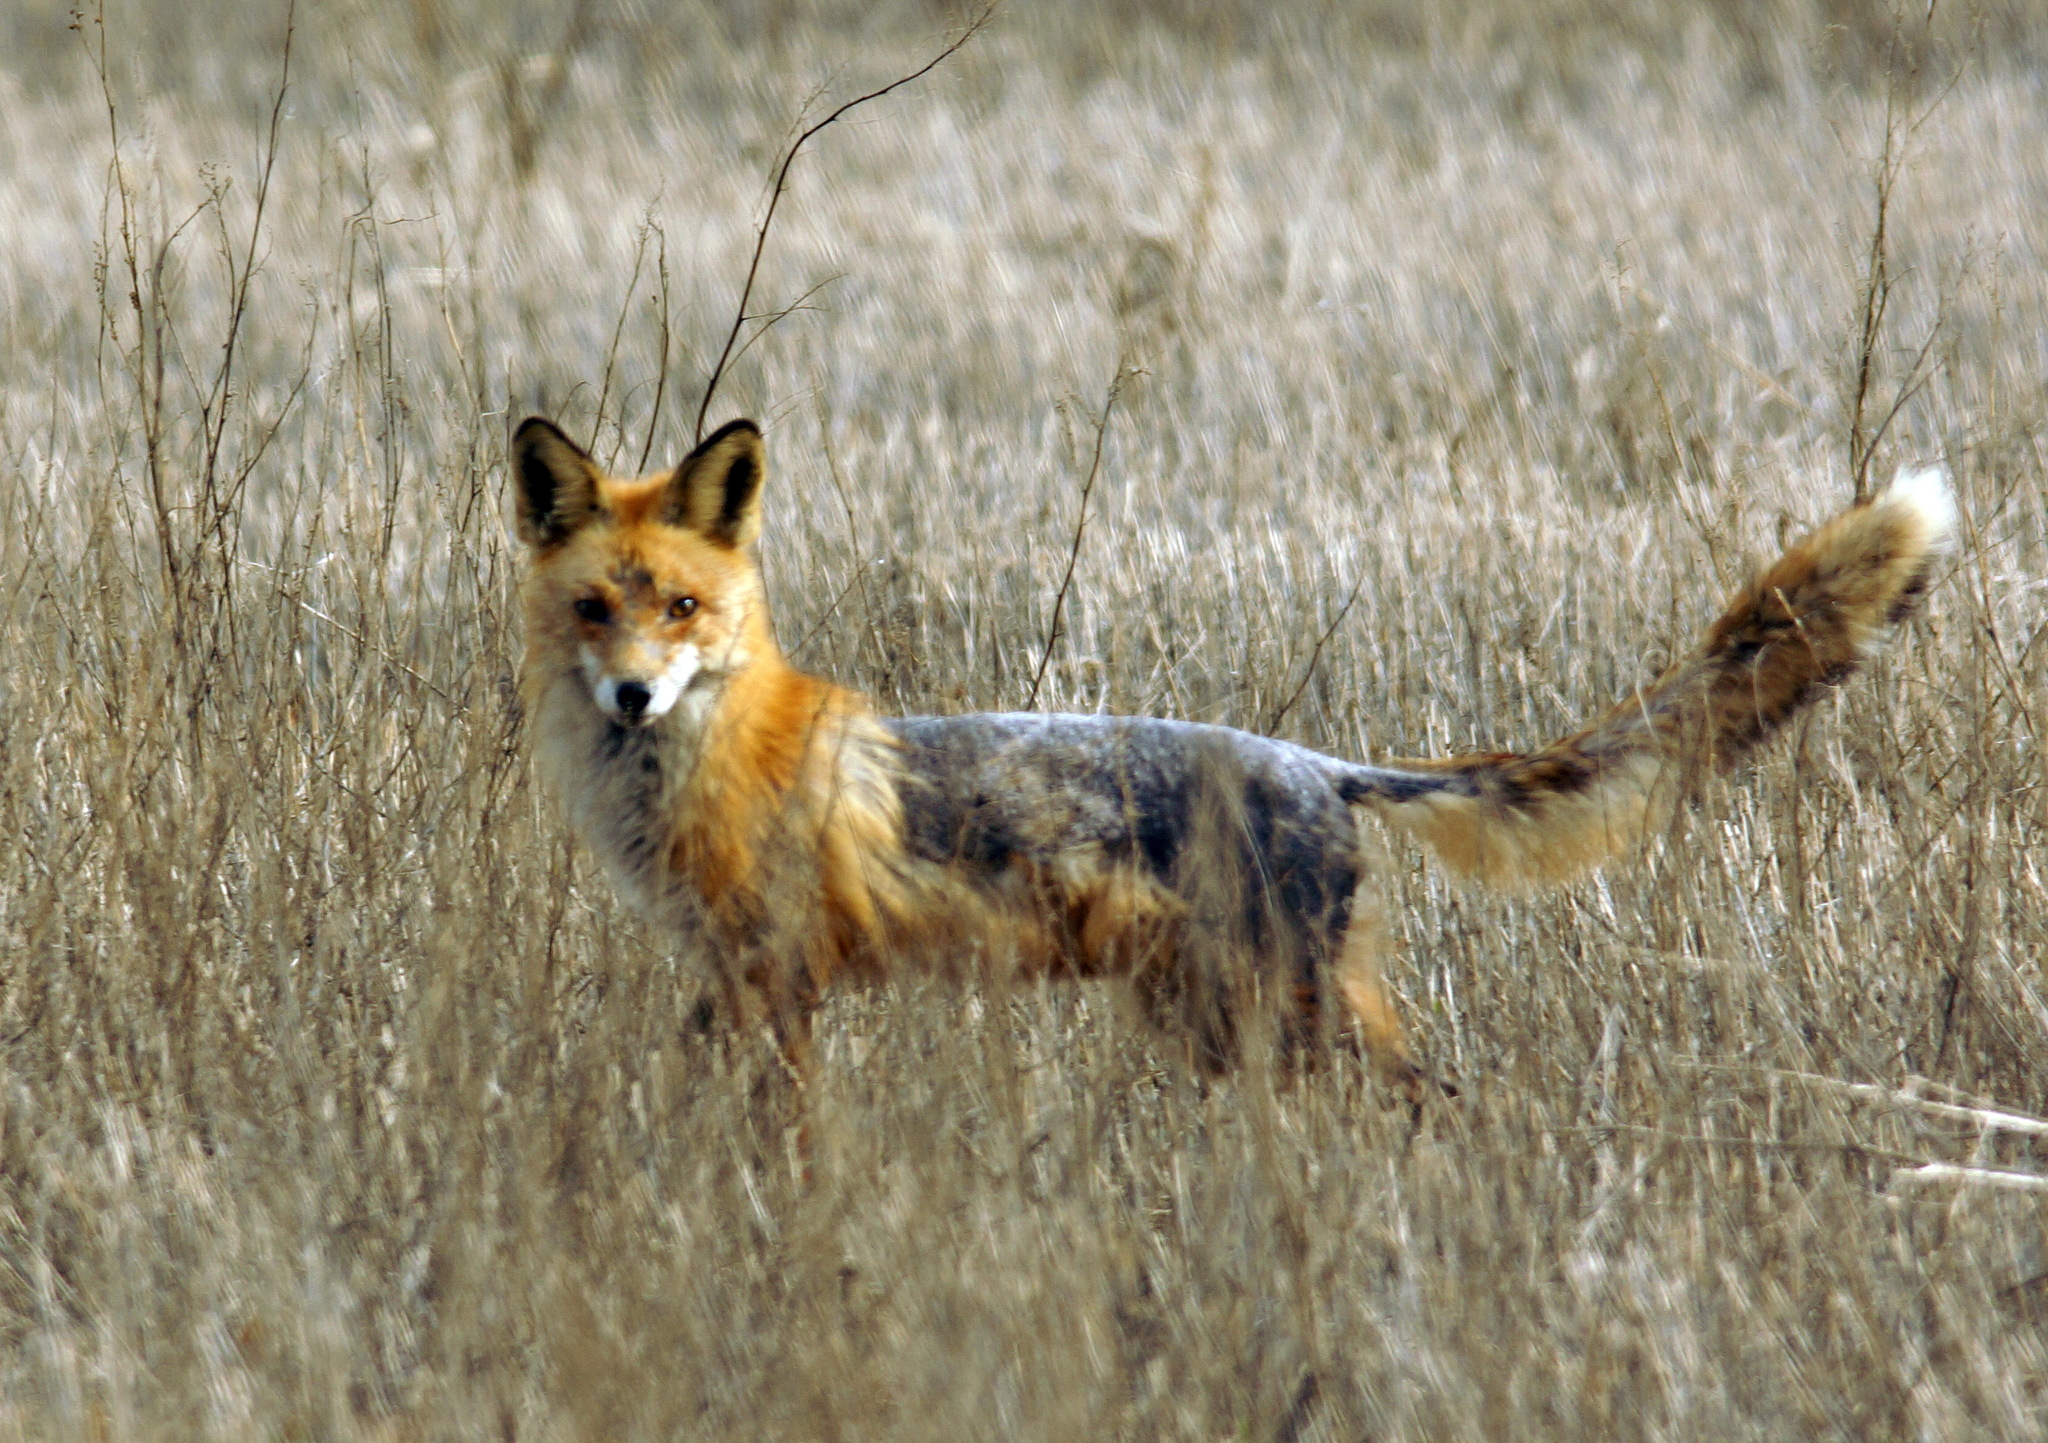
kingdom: Animalia
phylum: Chordata
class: Mammalia
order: Carnivora
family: Canidae
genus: Vulpes
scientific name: Vulpes vulpes
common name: Red fox
